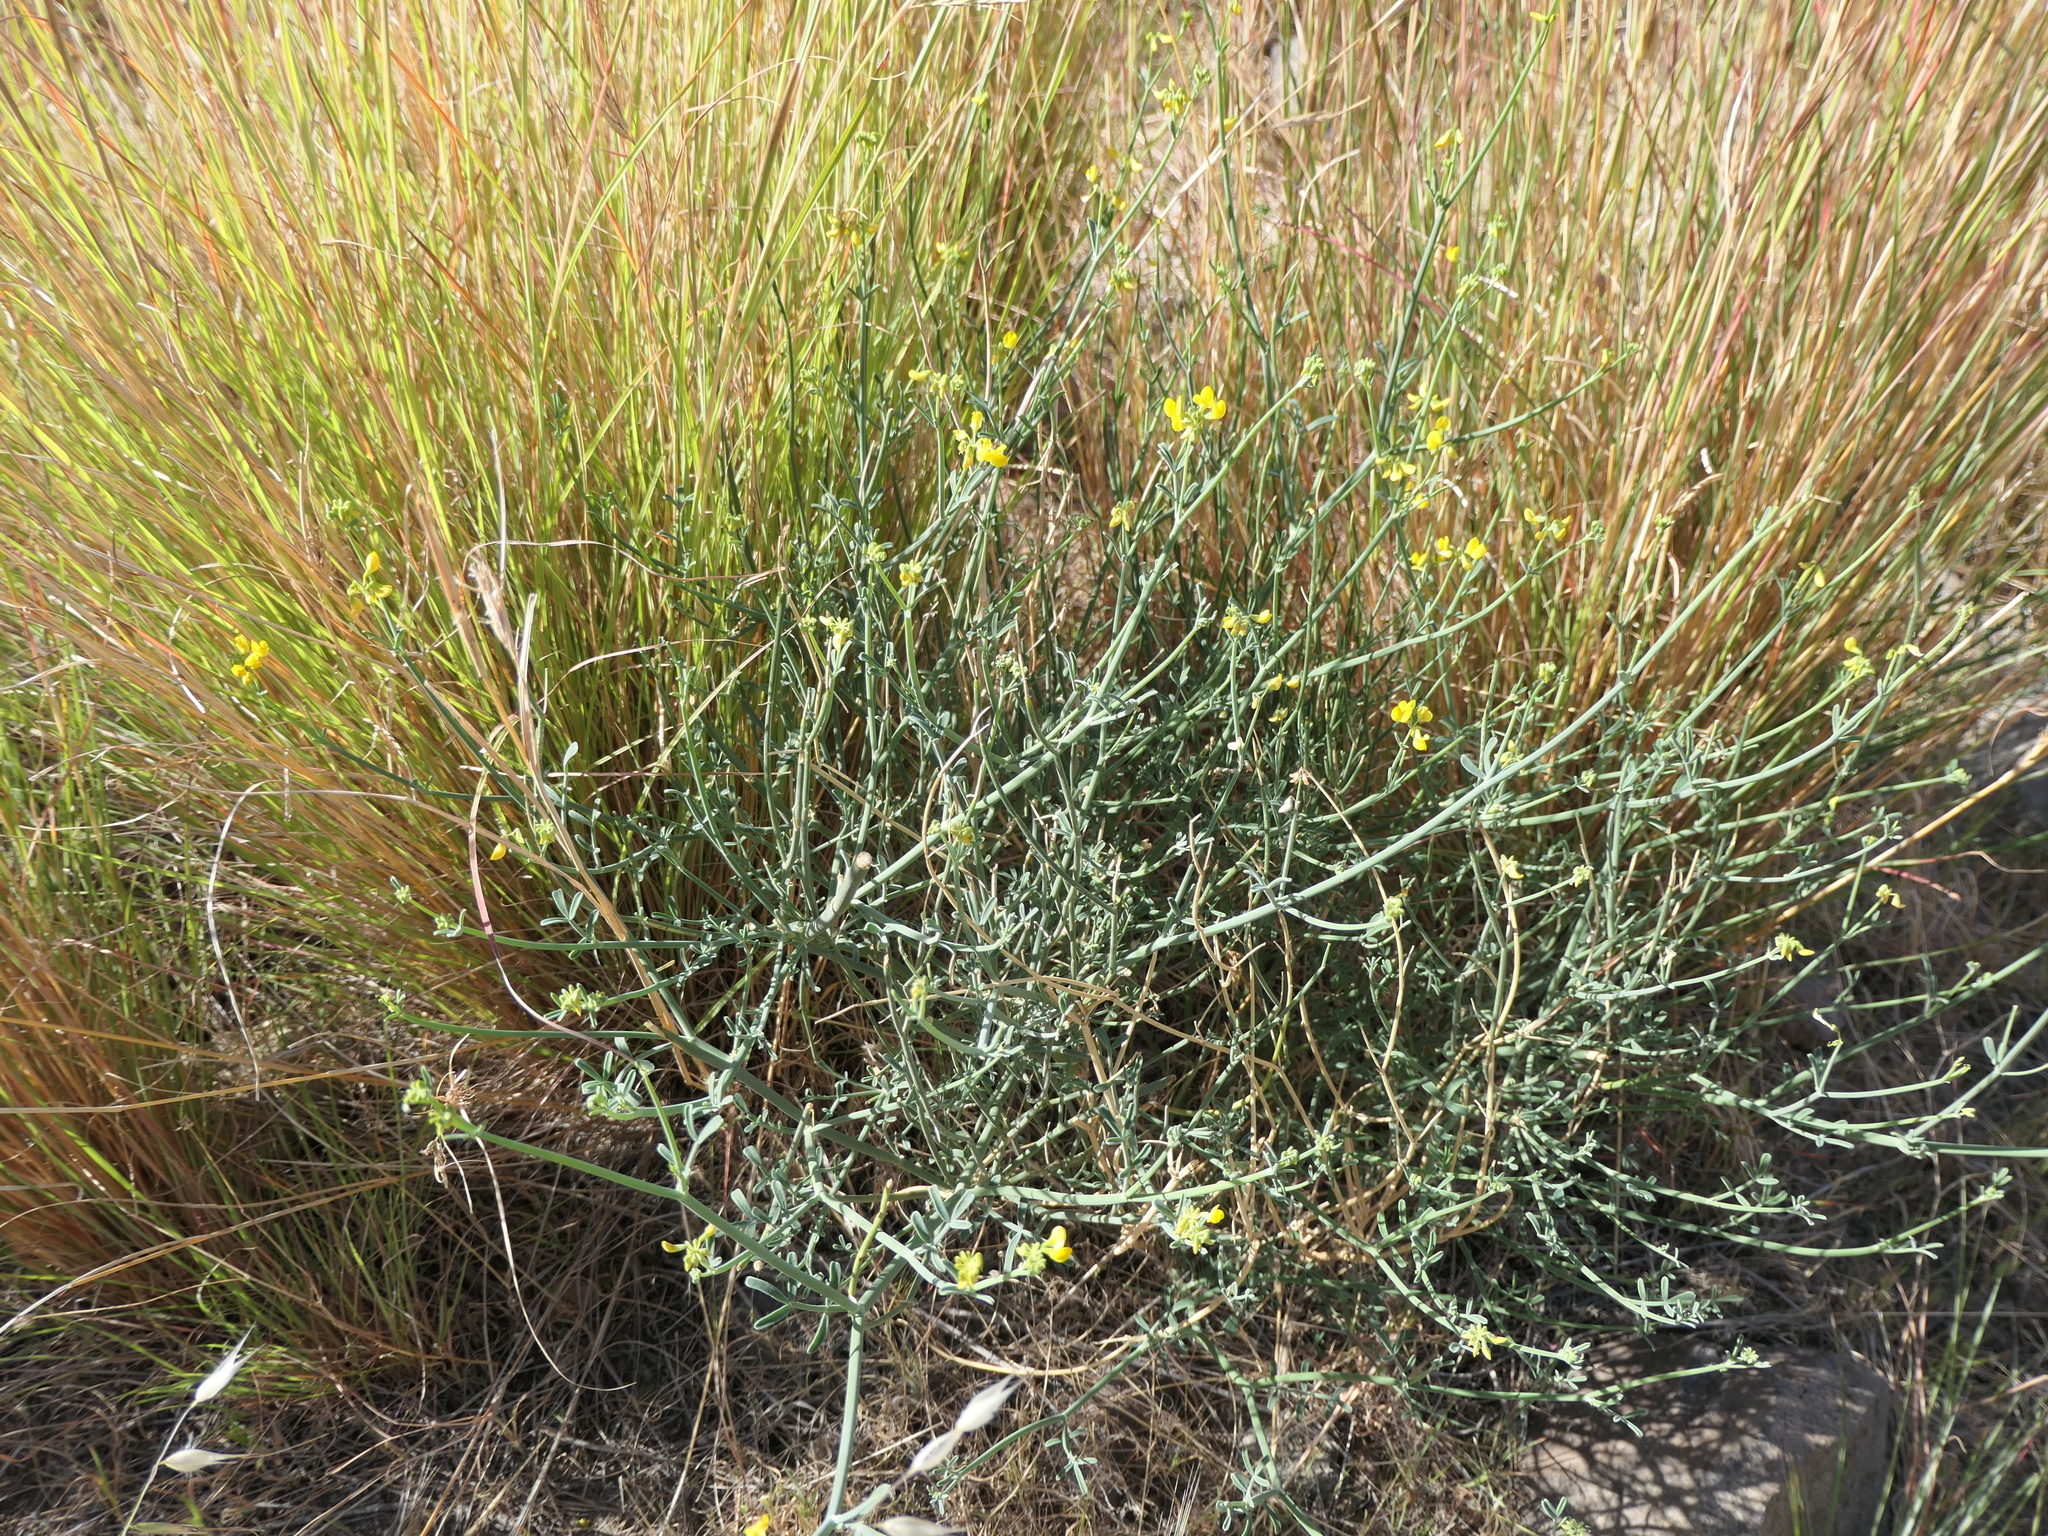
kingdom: Plantae
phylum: Tracheophyta
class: Magnoliopsida
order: Fabales
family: Fabaceae
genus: Coronilla
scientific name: Coronilla juncea
